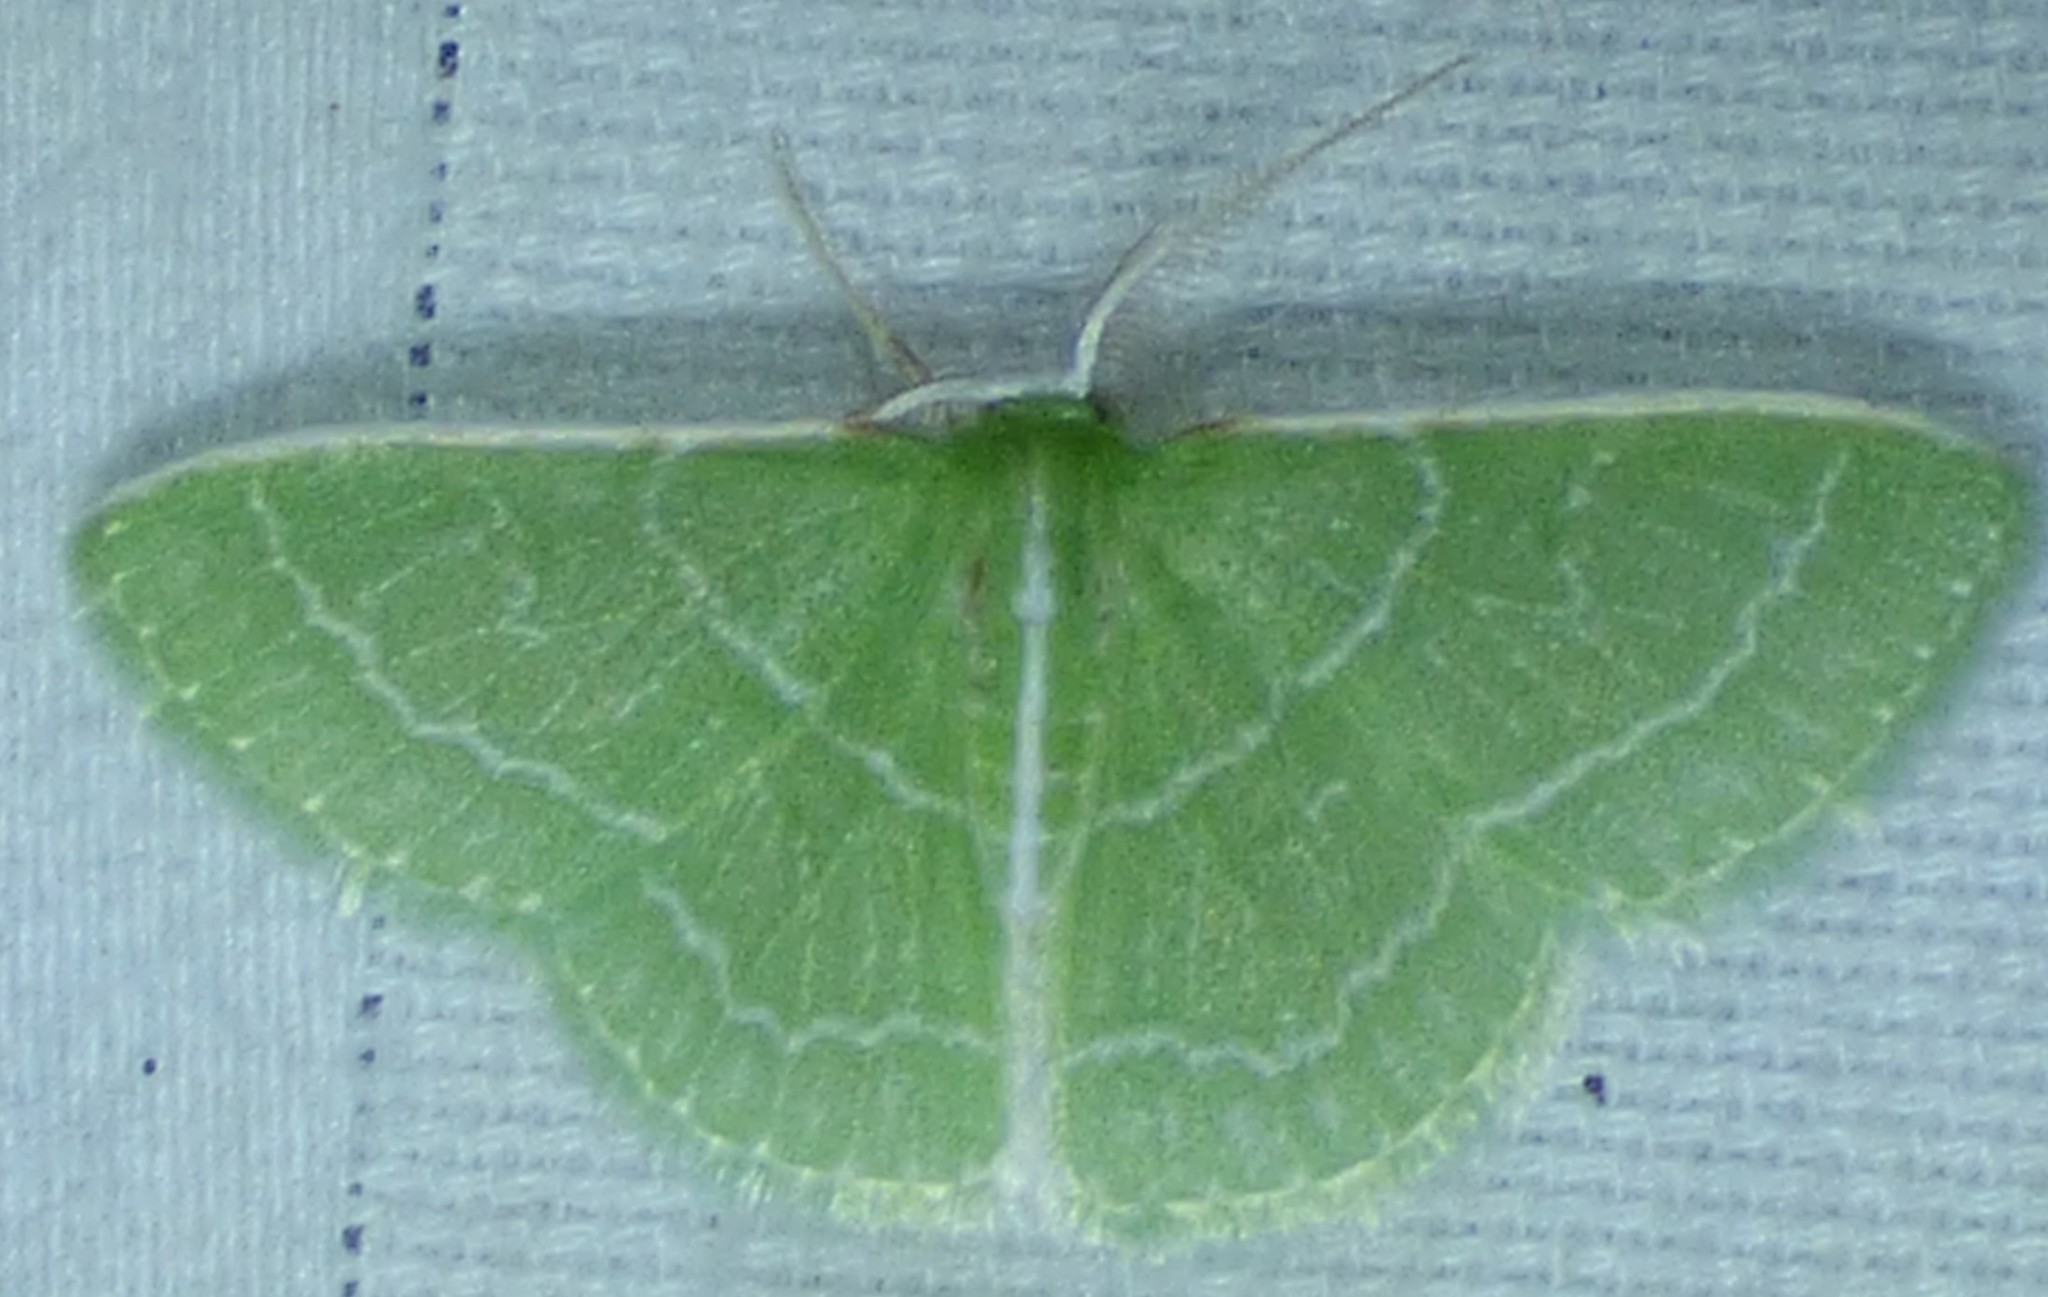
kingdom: Animalia
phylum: Arthropoda
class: Insecta
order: Lepidoptera
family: Geometridae
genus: Synchlora
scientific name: Synchlora aerata
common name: Wavy-lined emerald
